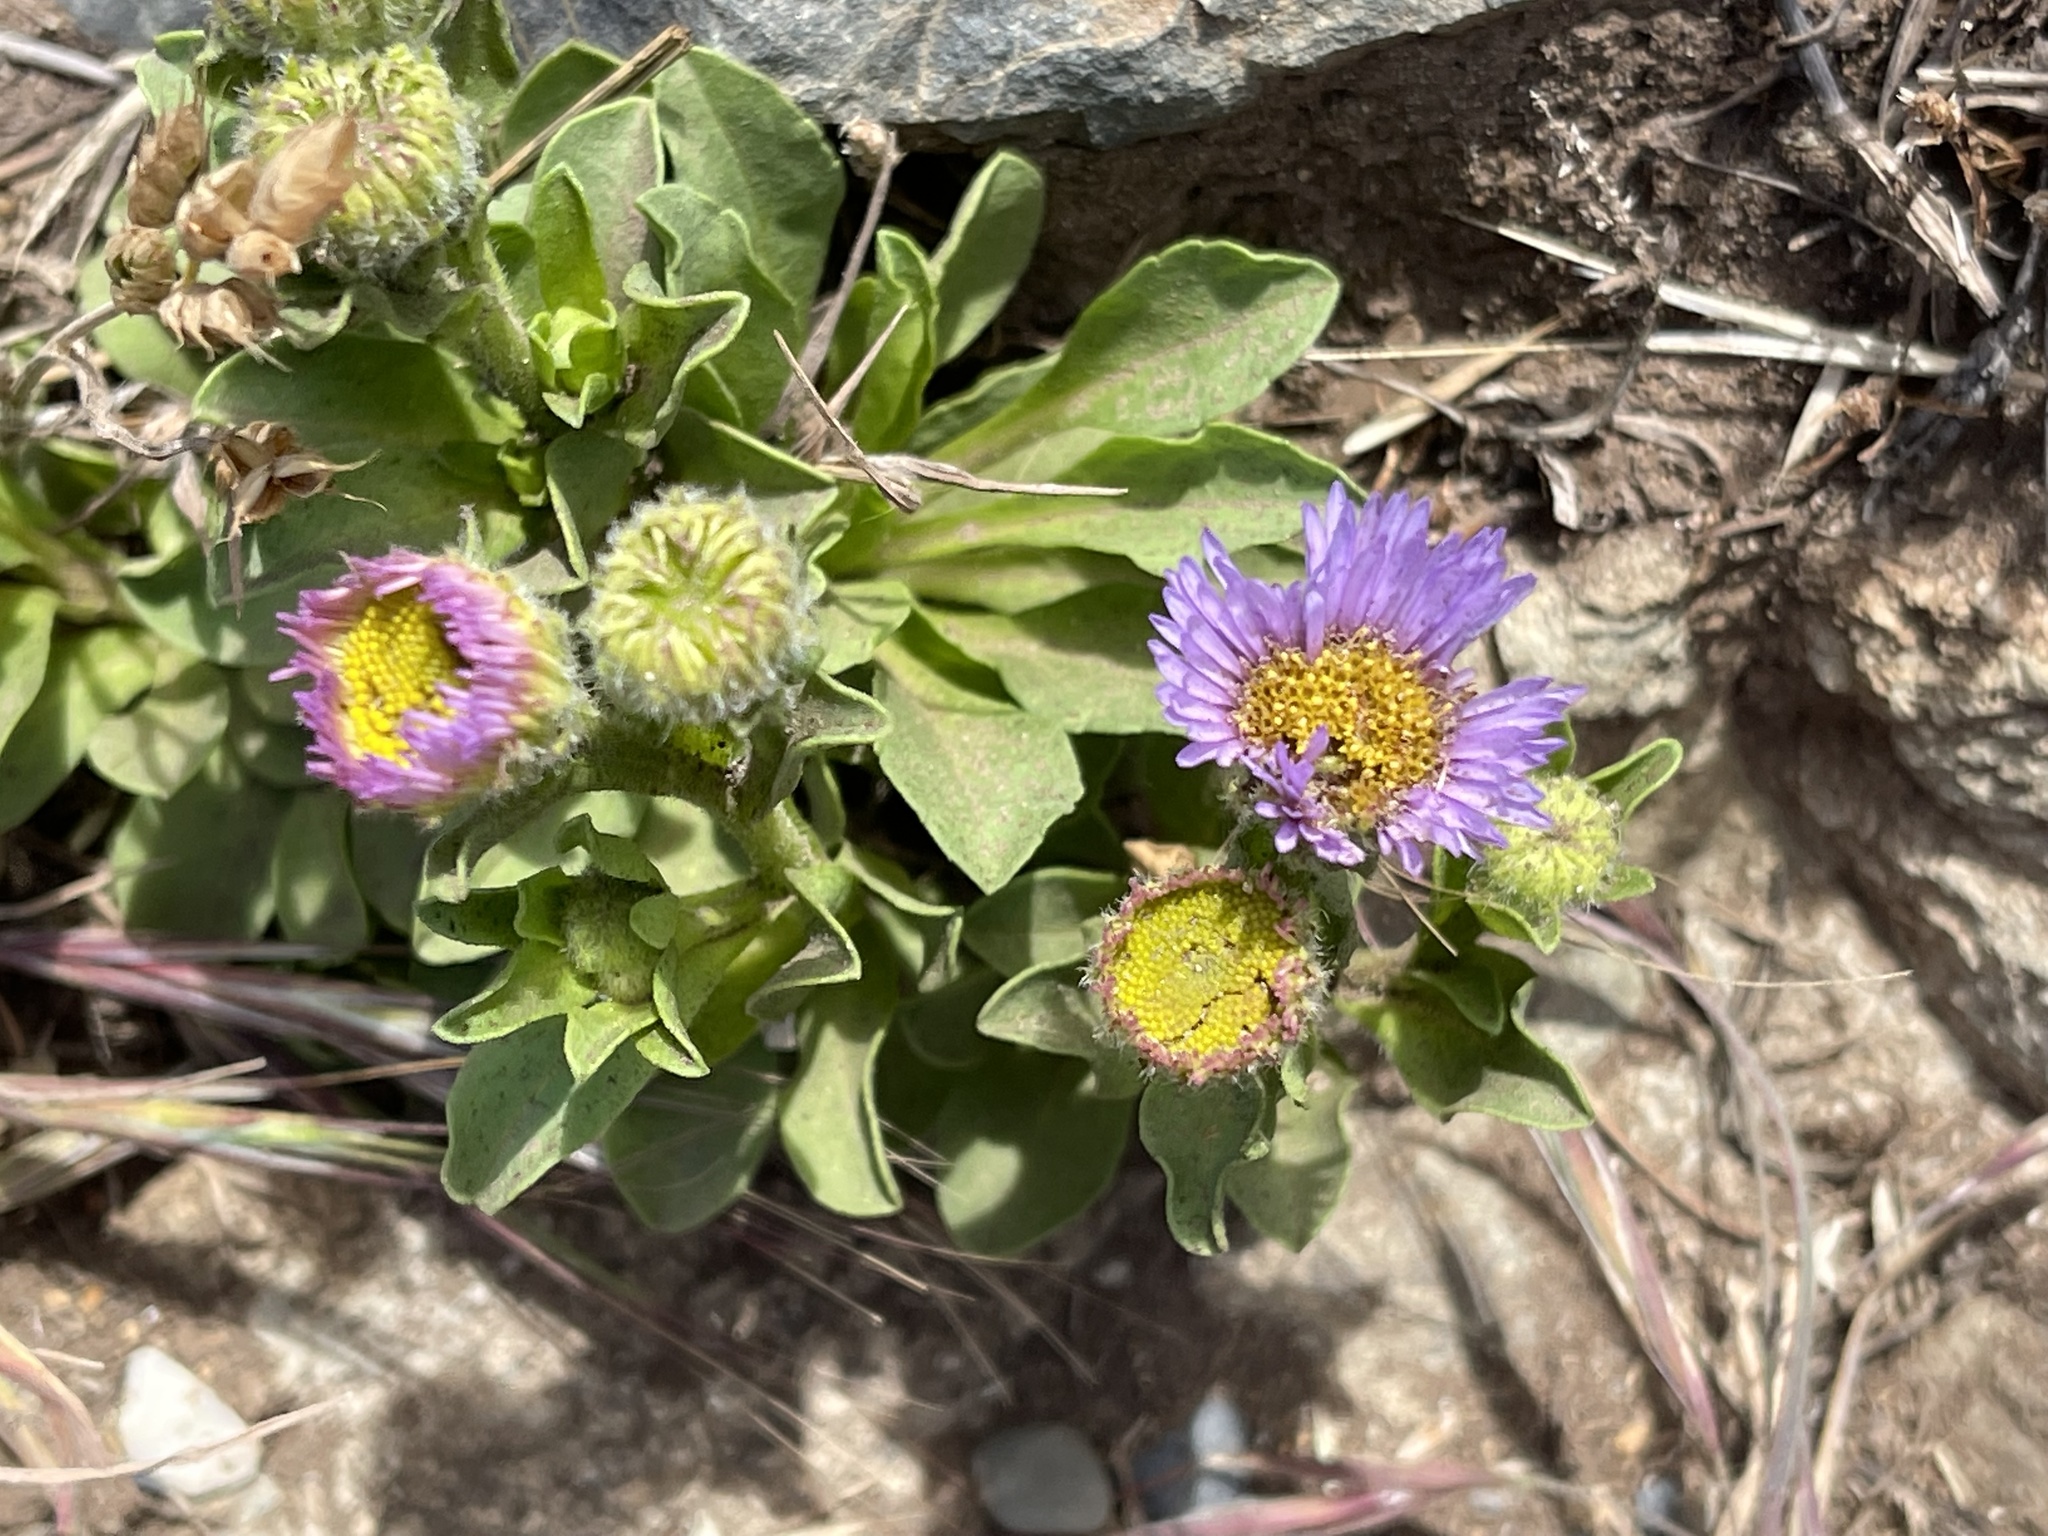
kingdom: Plantae
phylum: Tracheophyta
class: Magnoliopsida
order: Asterales
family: Asteraceae
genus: Erigeron
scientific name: Erigeron glaucus
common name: Seaside daisy
